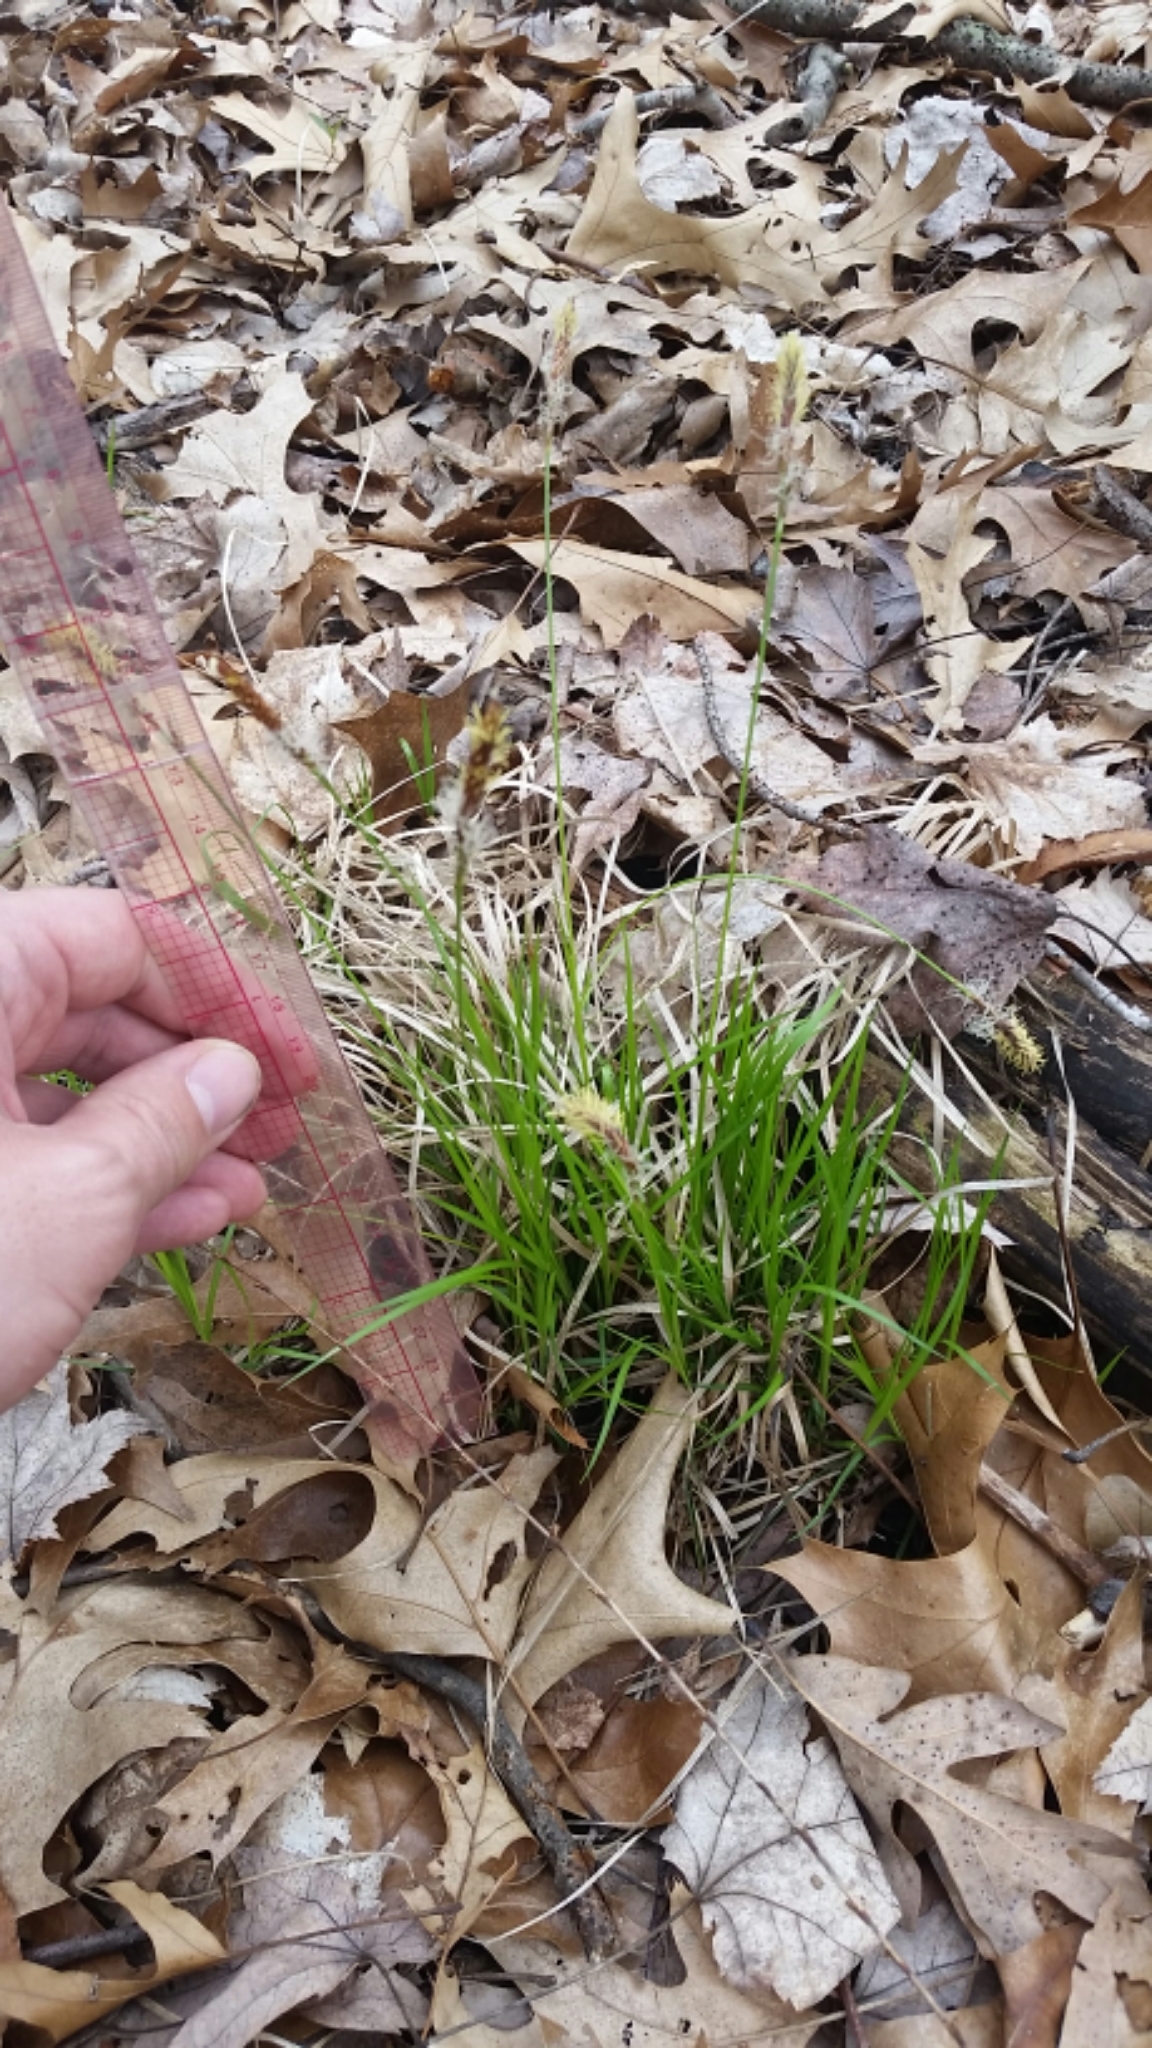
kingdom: Plantae
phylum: Tracheophyta
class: Liliopsida
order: Poales
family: Cyperaceae
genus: Carex
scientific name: Carex pensylvanica
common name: Common oak sedge
